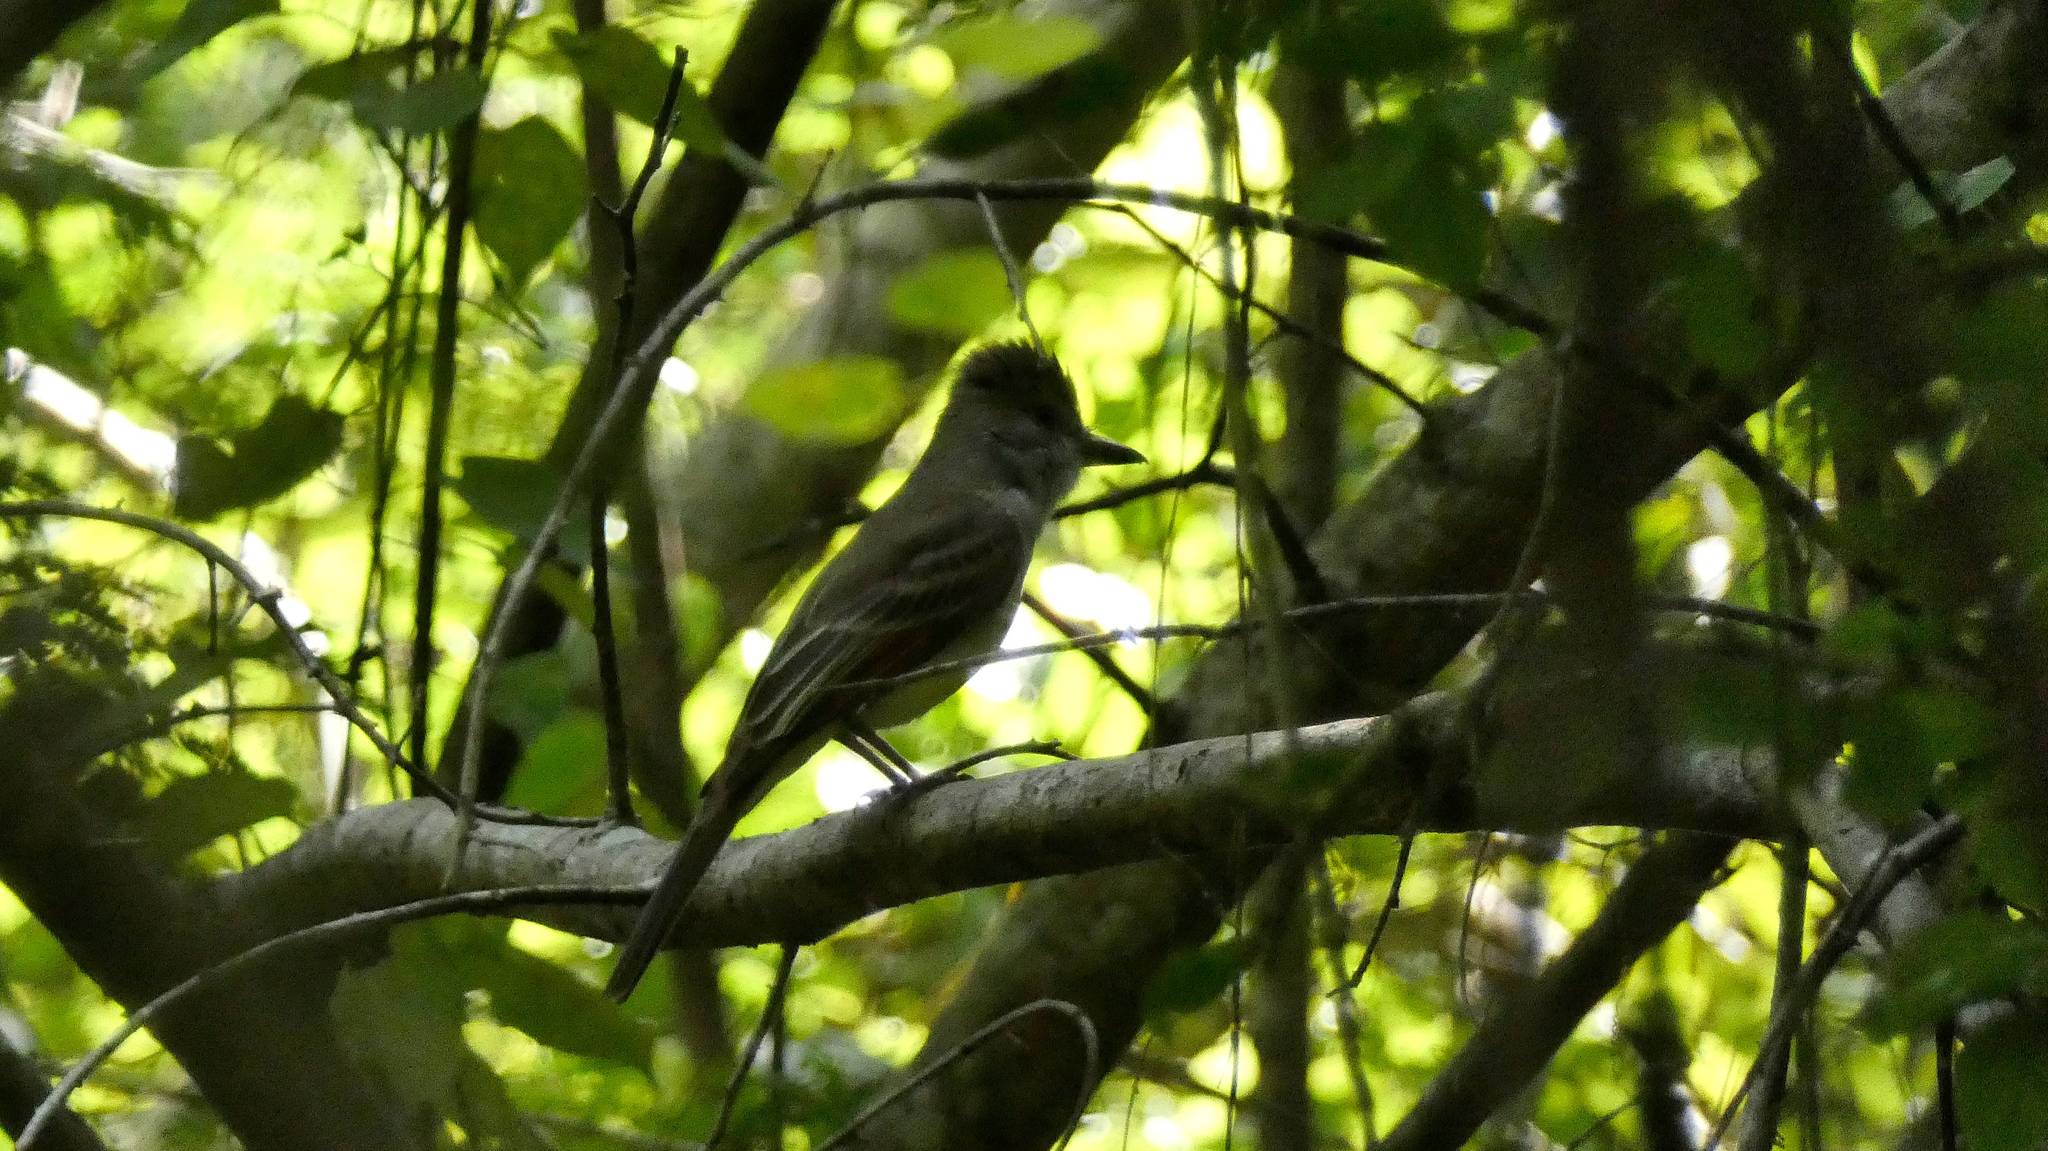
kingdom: Animalia
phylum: Chordata
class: Aves
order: Passeriformes
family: Tyrannidae
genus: Myiarchus
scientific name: Myiarchus crinitus
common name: Great crested flycatcher
